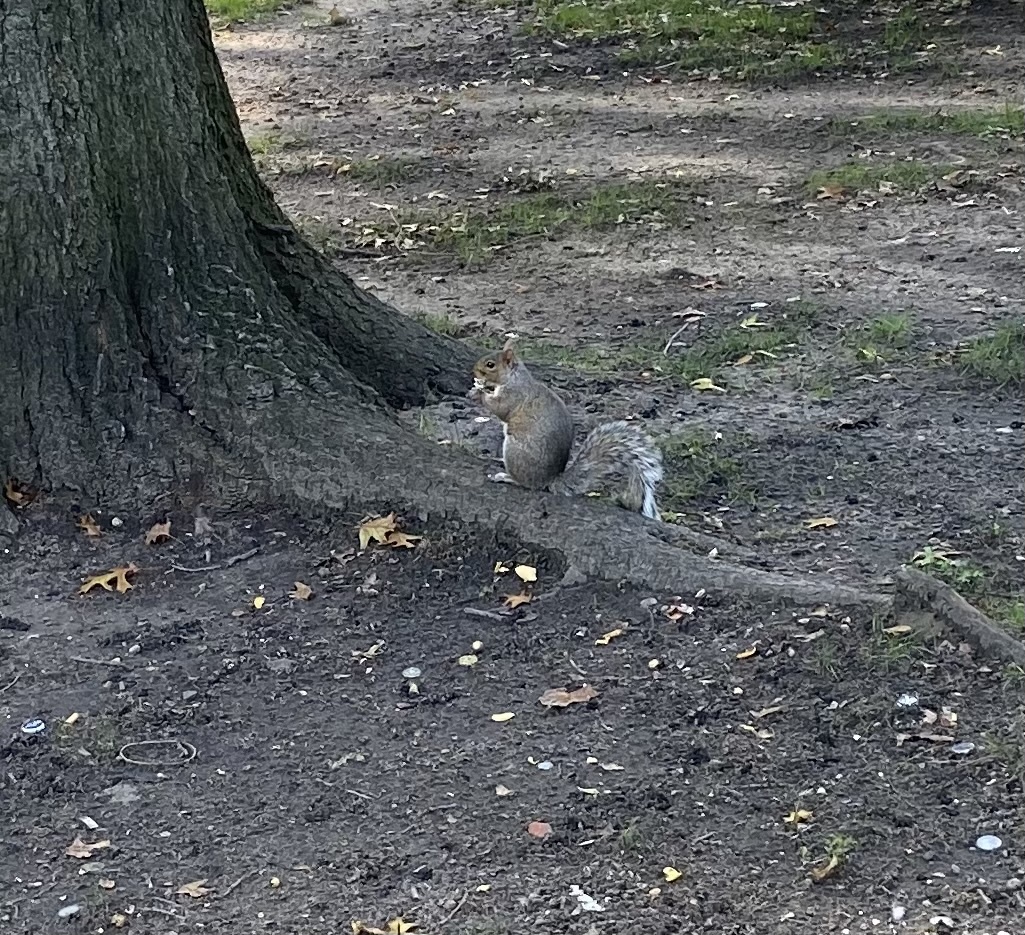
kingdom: Animalia
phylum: Chordata
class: Mammalia
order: Rodentia
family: Sciuridae
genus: Sciurus
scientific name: Sciurus carolinensis
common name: Eastern gray squirrel
